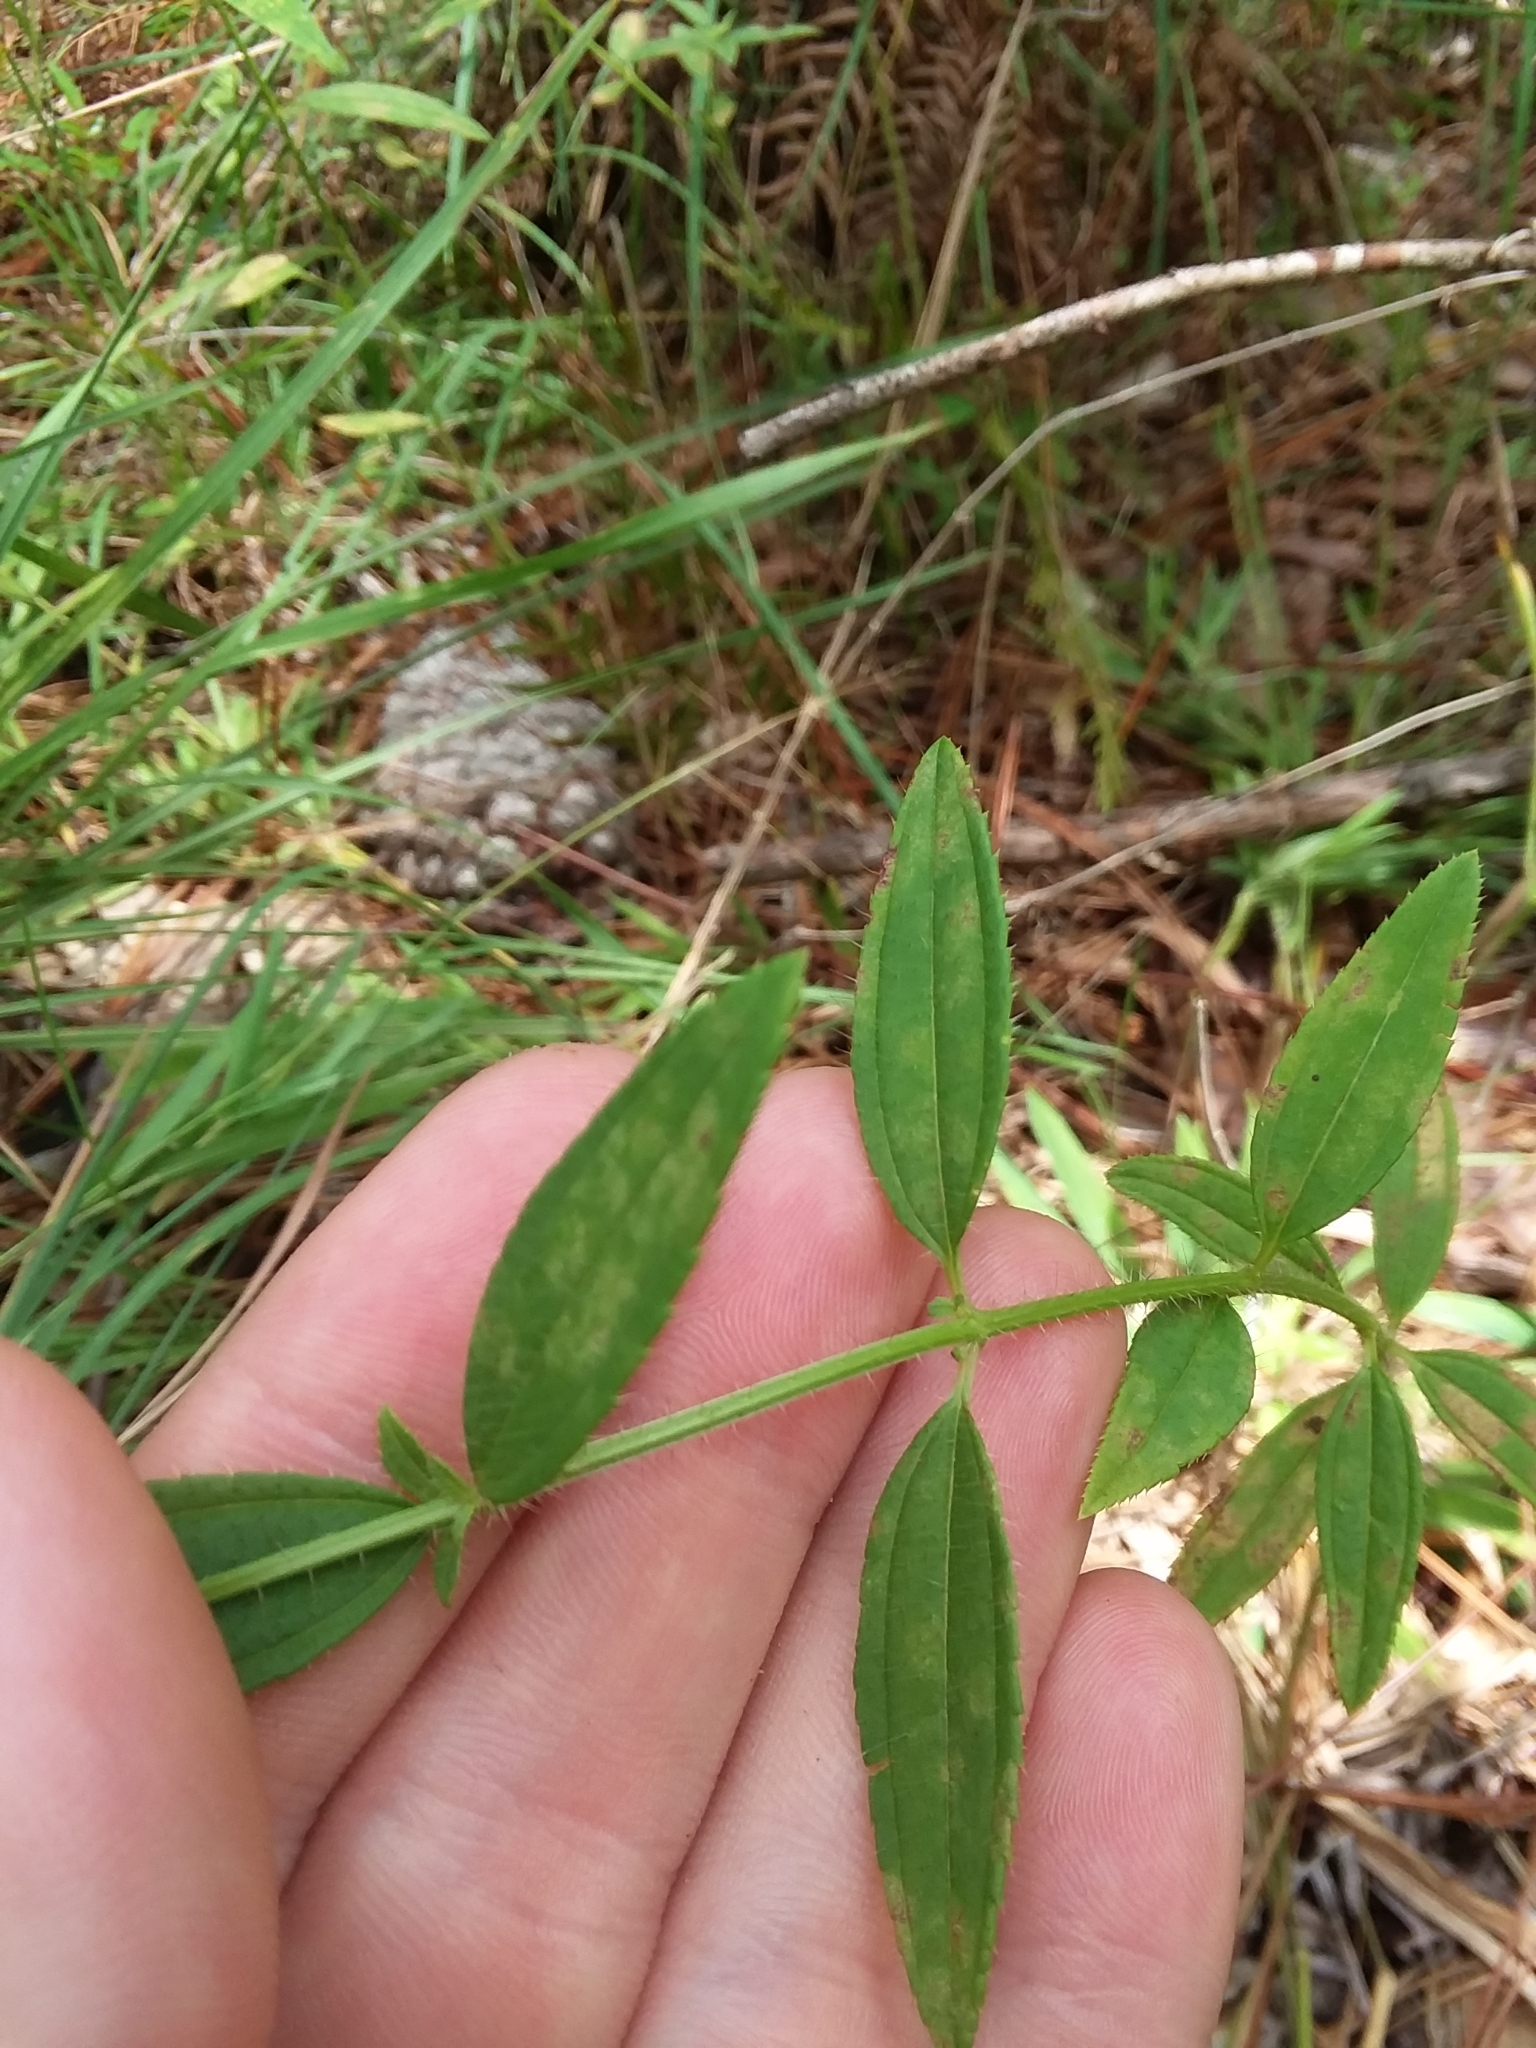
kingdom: Plantae
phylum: Tracheophyta
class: Magnoliopsida
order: Myrtales
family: Melastomataceae
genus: Rhexia
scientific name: Rhexia mariana
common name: Dull meadow-pitcher
